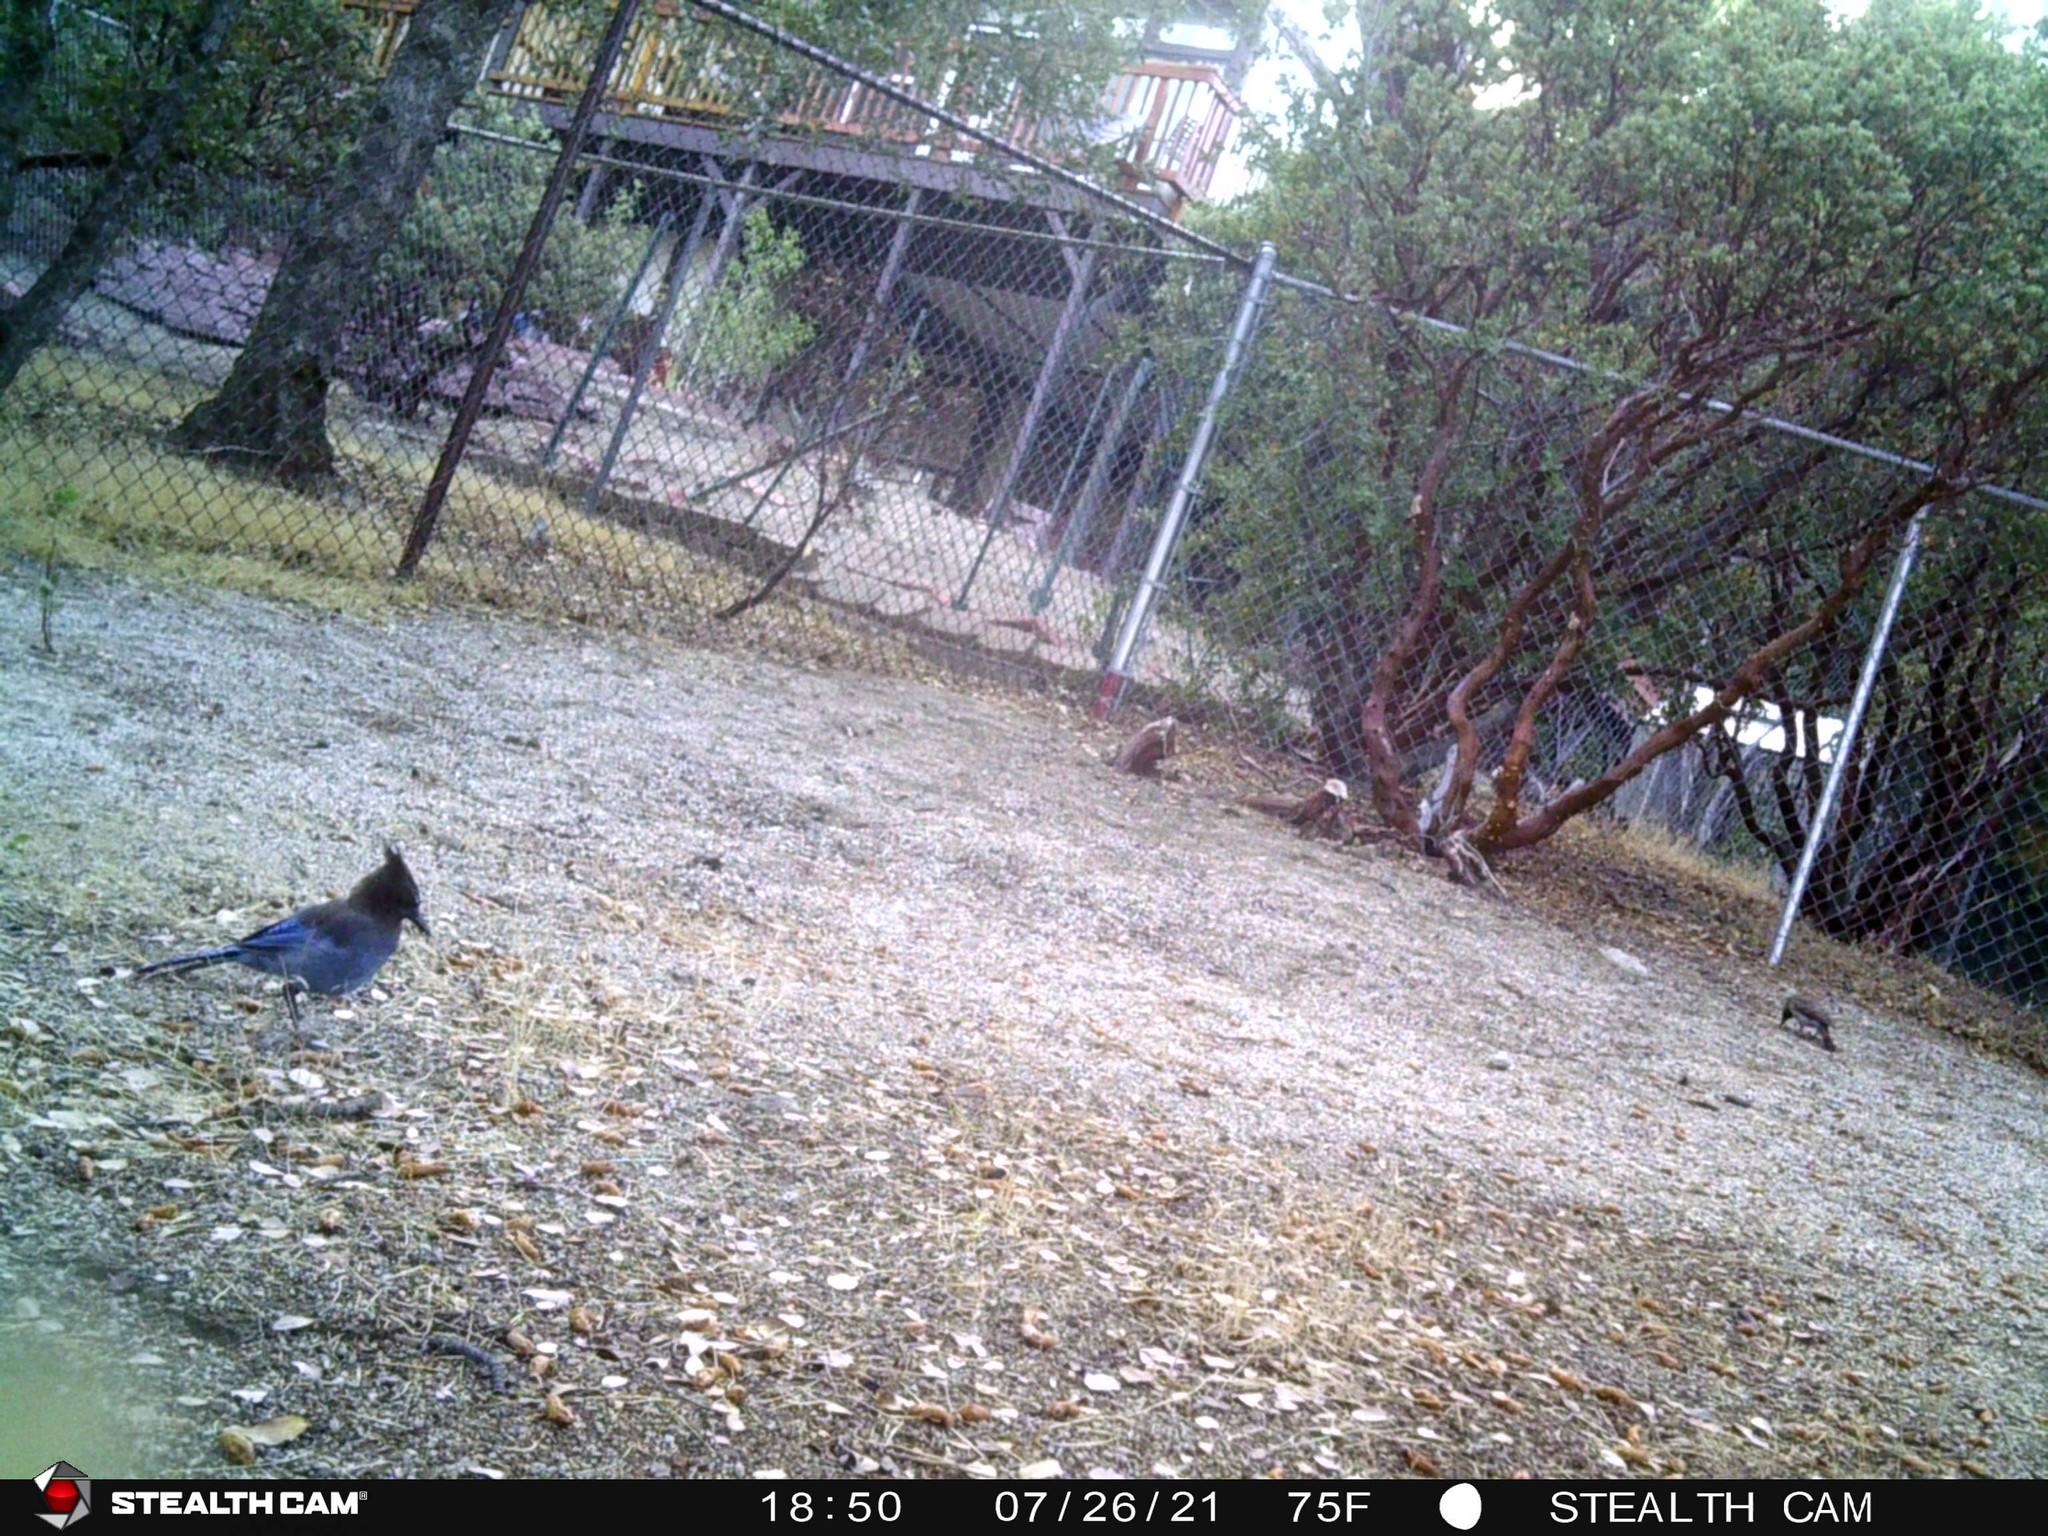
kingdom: Animalia
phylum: Chordata
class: Aves
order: Passeriformes
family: Corvidae
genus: Cyanocitta
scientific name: Cyanocitta stelleri
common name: Steller's jay
